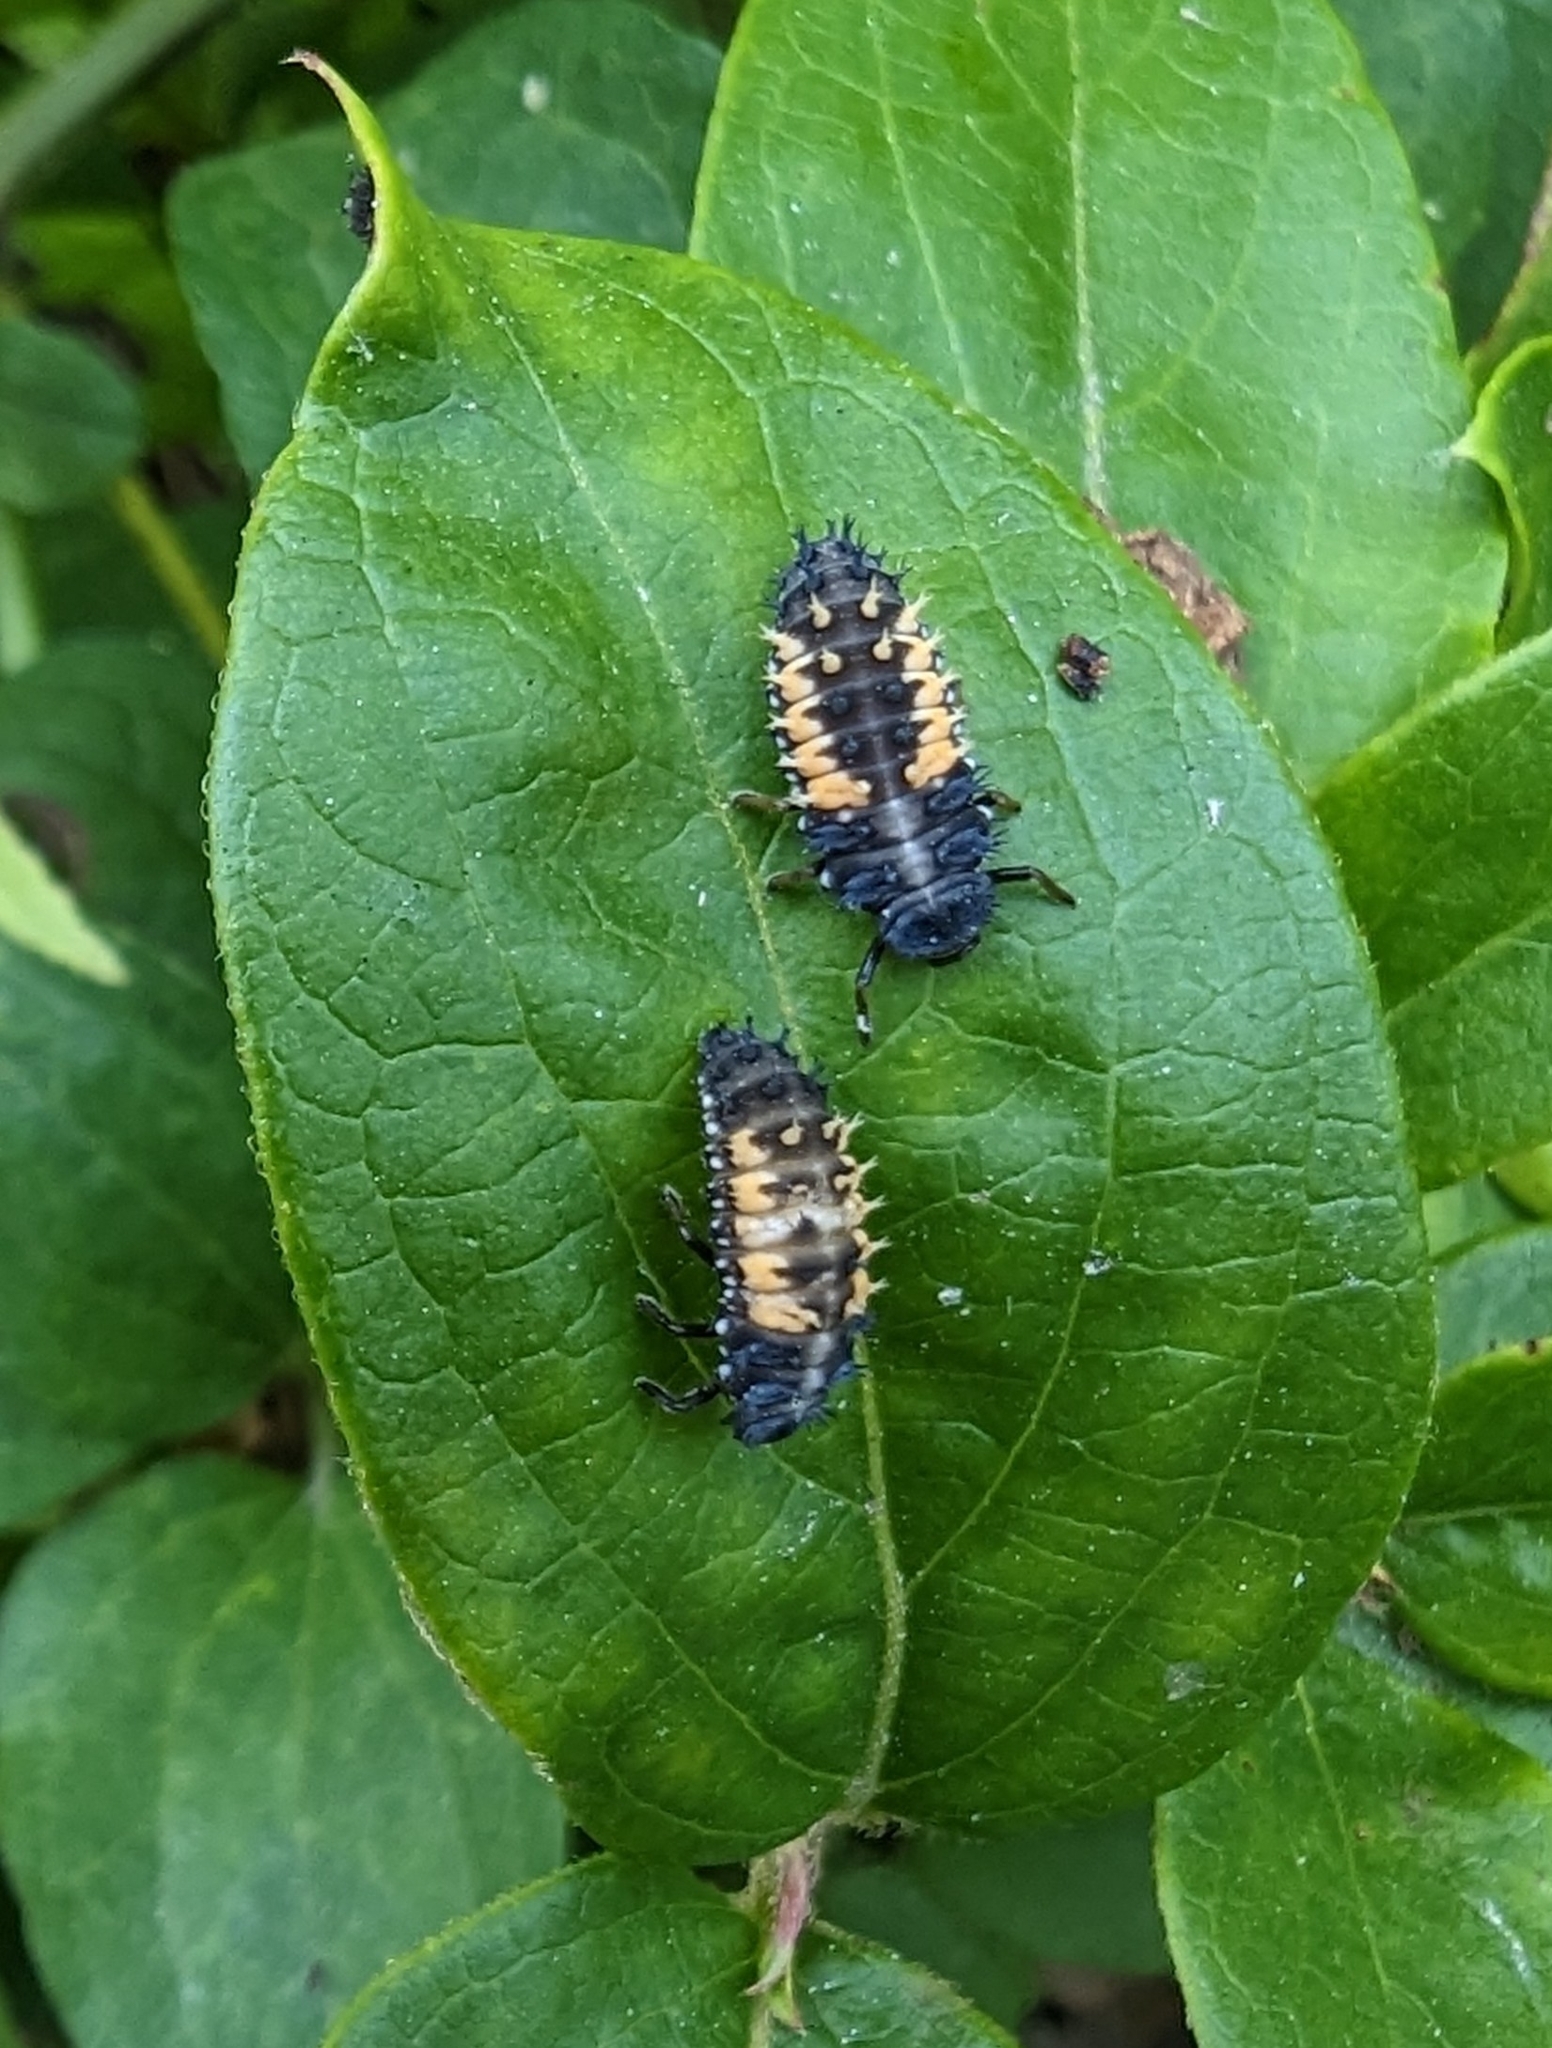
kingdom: Animalia
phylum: Arthropoda
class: Insecta
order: Coleoptera
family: Coccinellidae
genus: Harmonia
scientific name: Harmonia axyridis
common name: Harlequin ladybird
